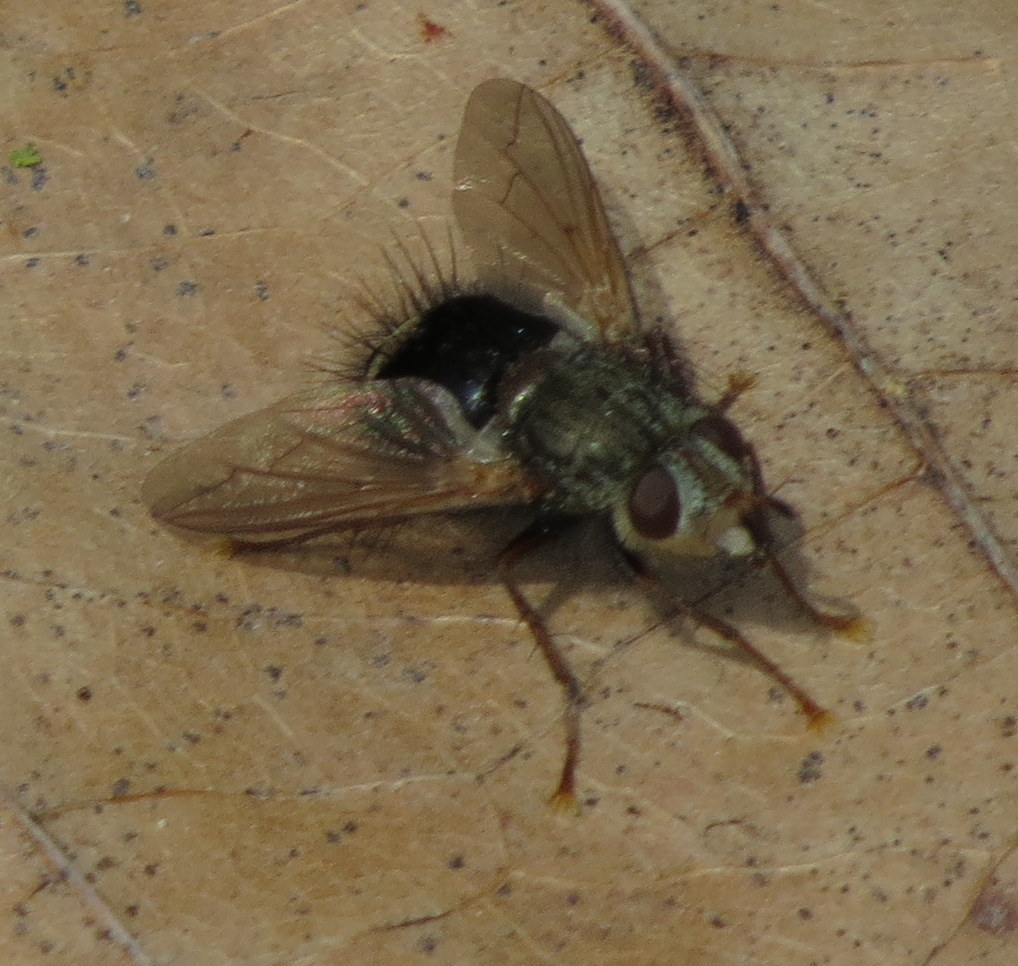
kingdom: Animalia
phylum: Arthropoda
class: Insecta
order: Diptera
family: Tachinidae
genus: Epalpus
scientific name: Epalpus signifer
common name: Early tachinid fly
